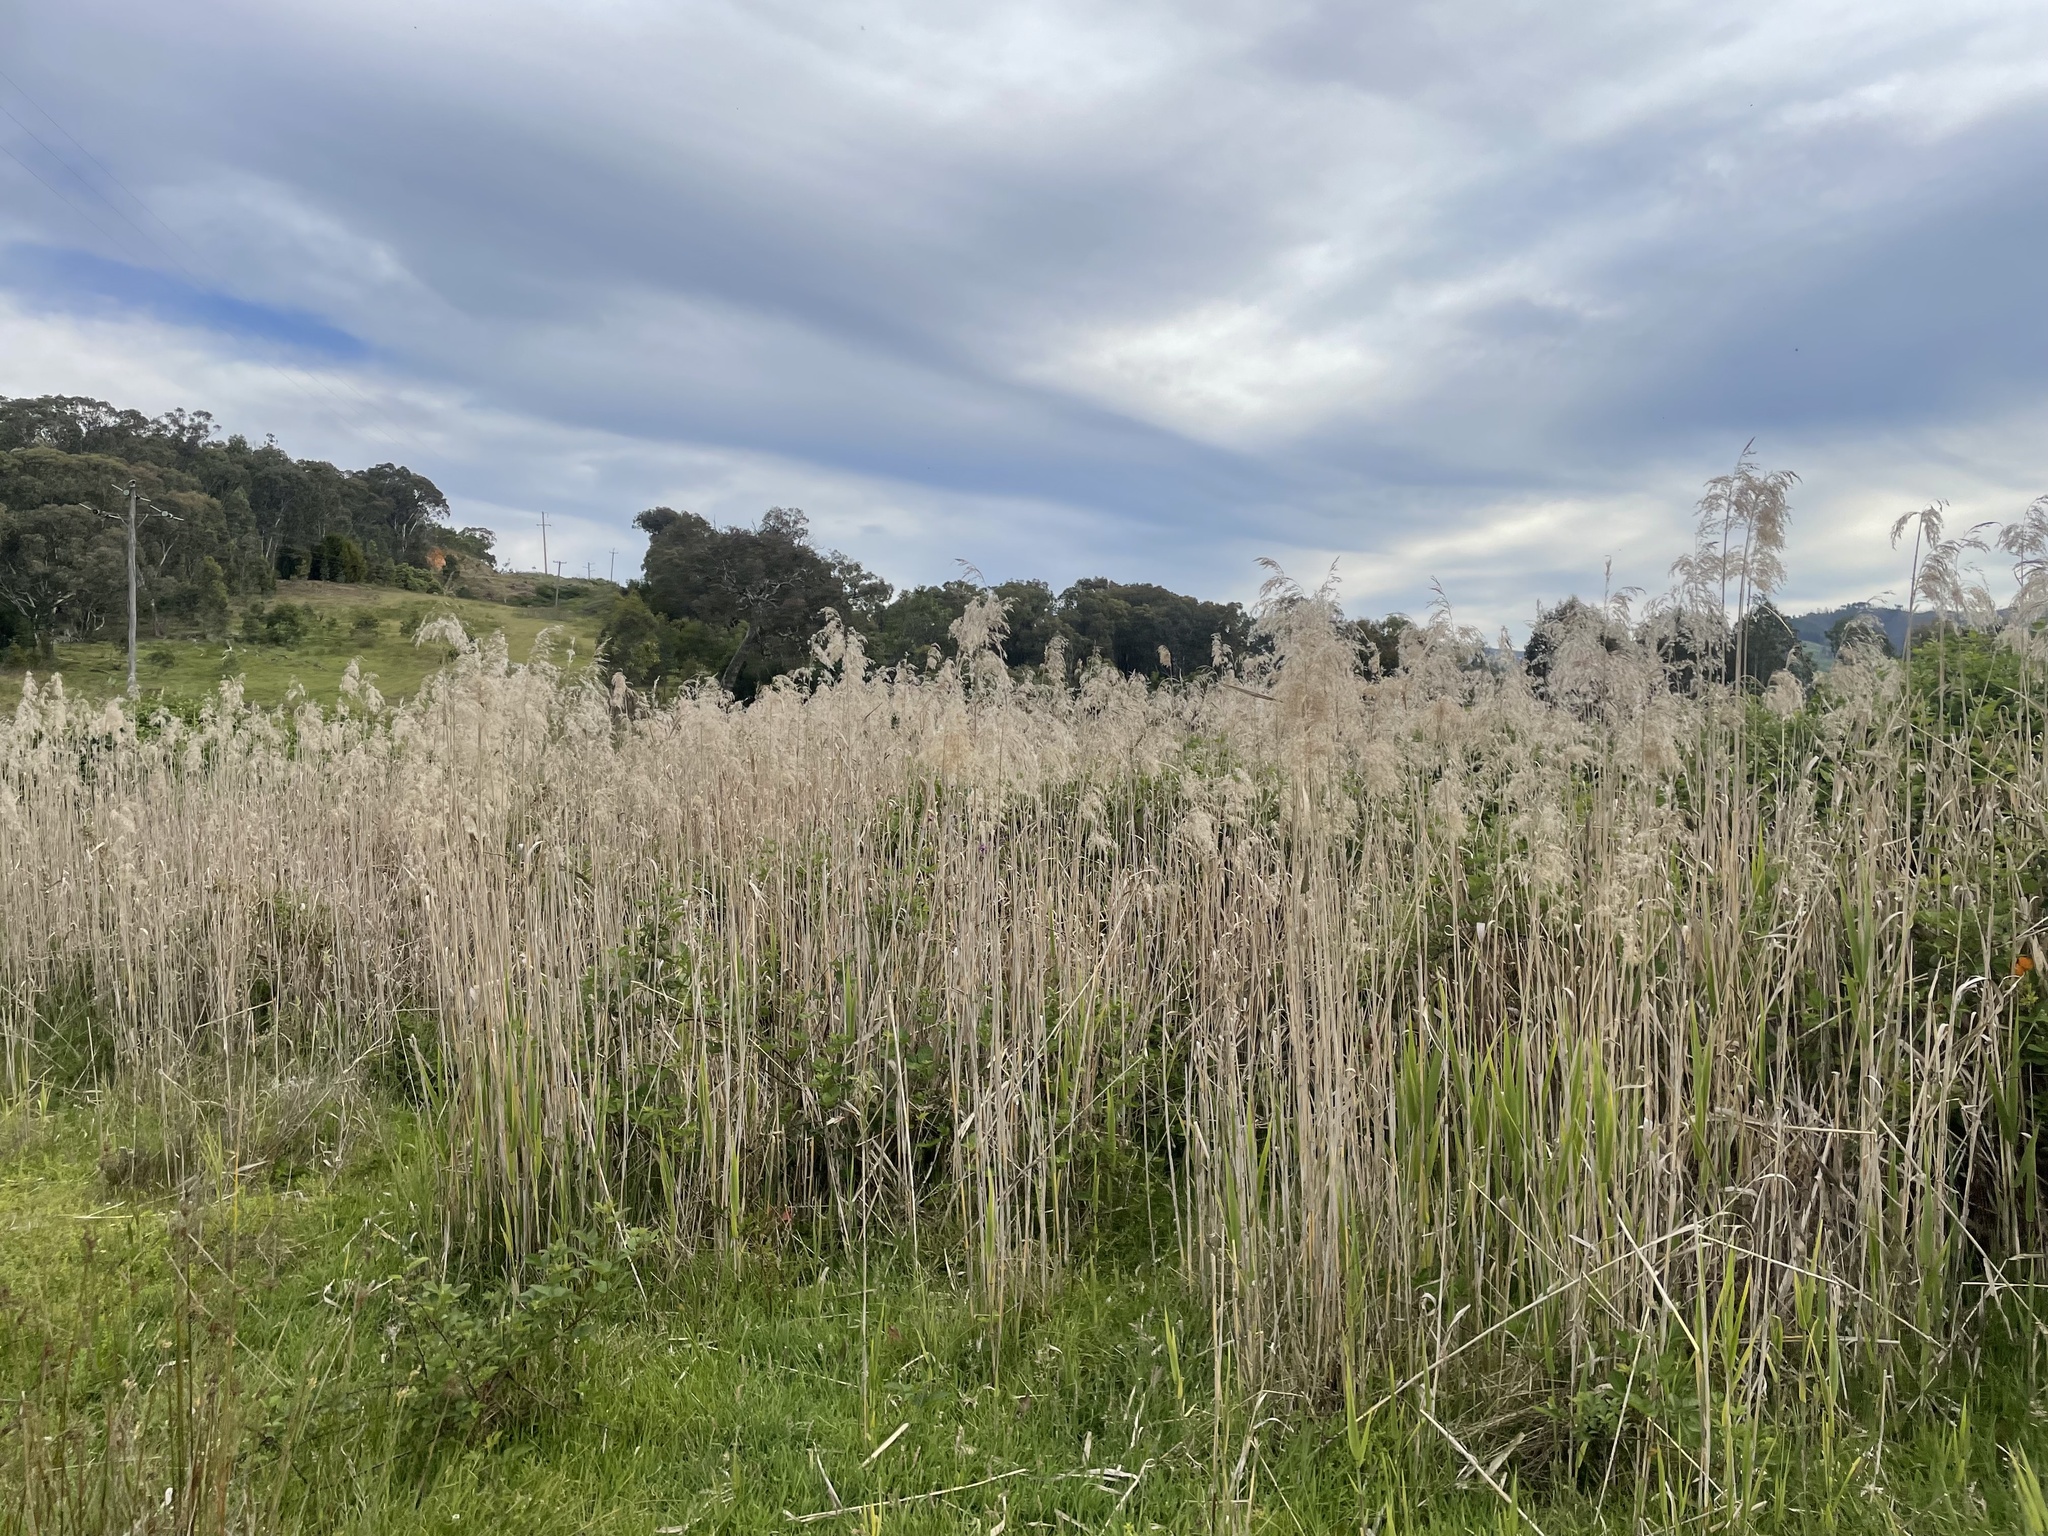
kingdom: Plantae
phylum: Tracheophyta
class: Liliopsida
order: Poales
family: Poaceae
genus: Phragmites
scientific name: Phragmites australis
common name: Common reed
